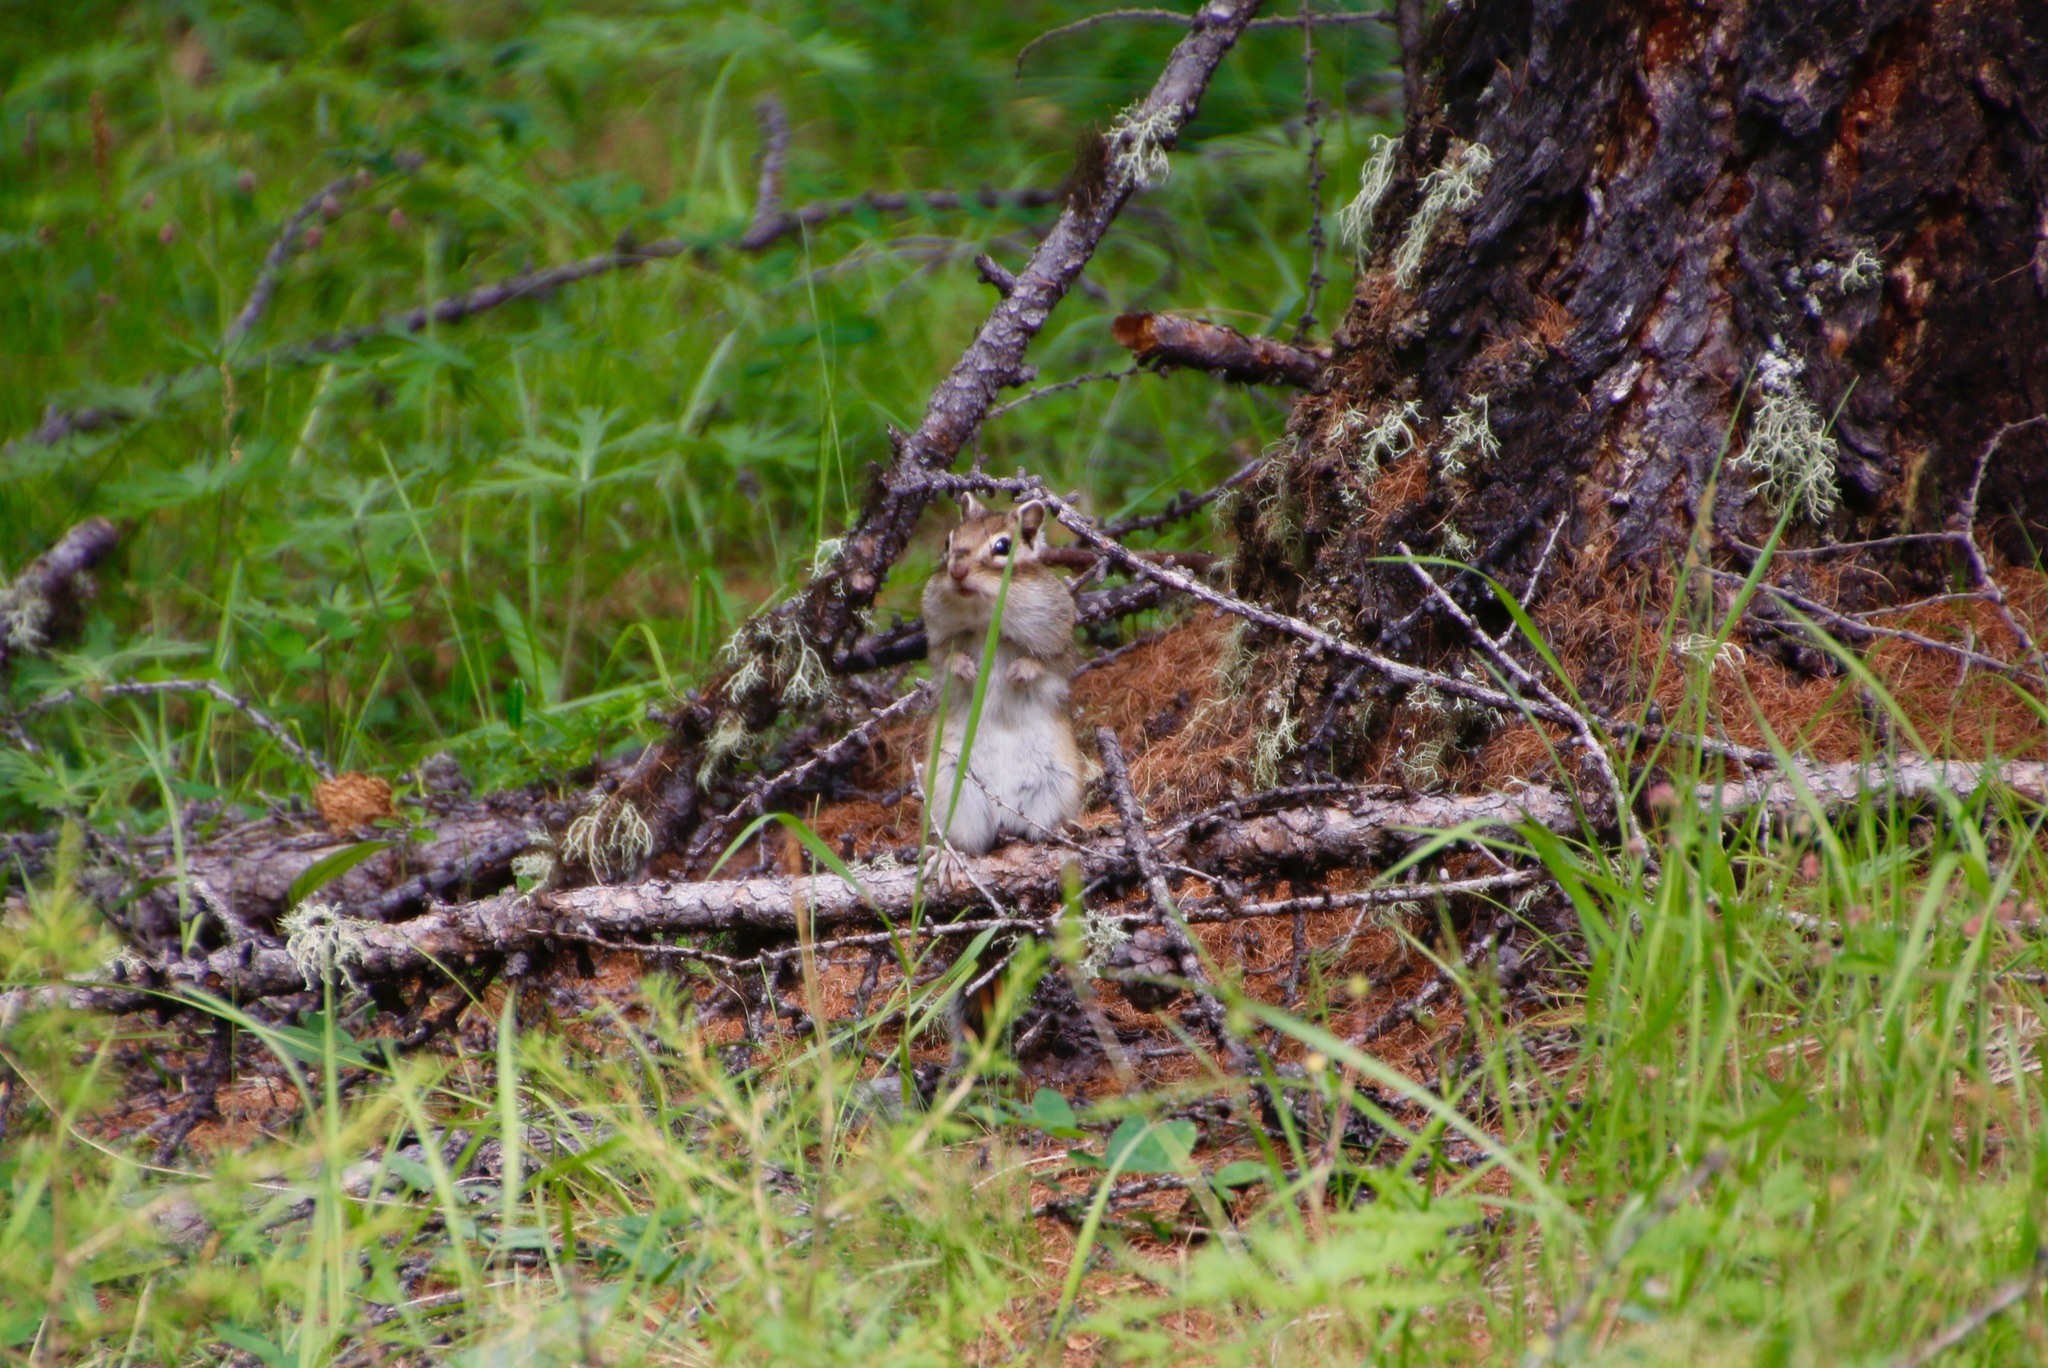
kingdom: Animalia
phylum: Chordata
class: Mammalia
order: Rodentia
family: Sciuridae
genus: Tamias
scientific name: Tamias sibiricus
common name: Siberian chipmunk
